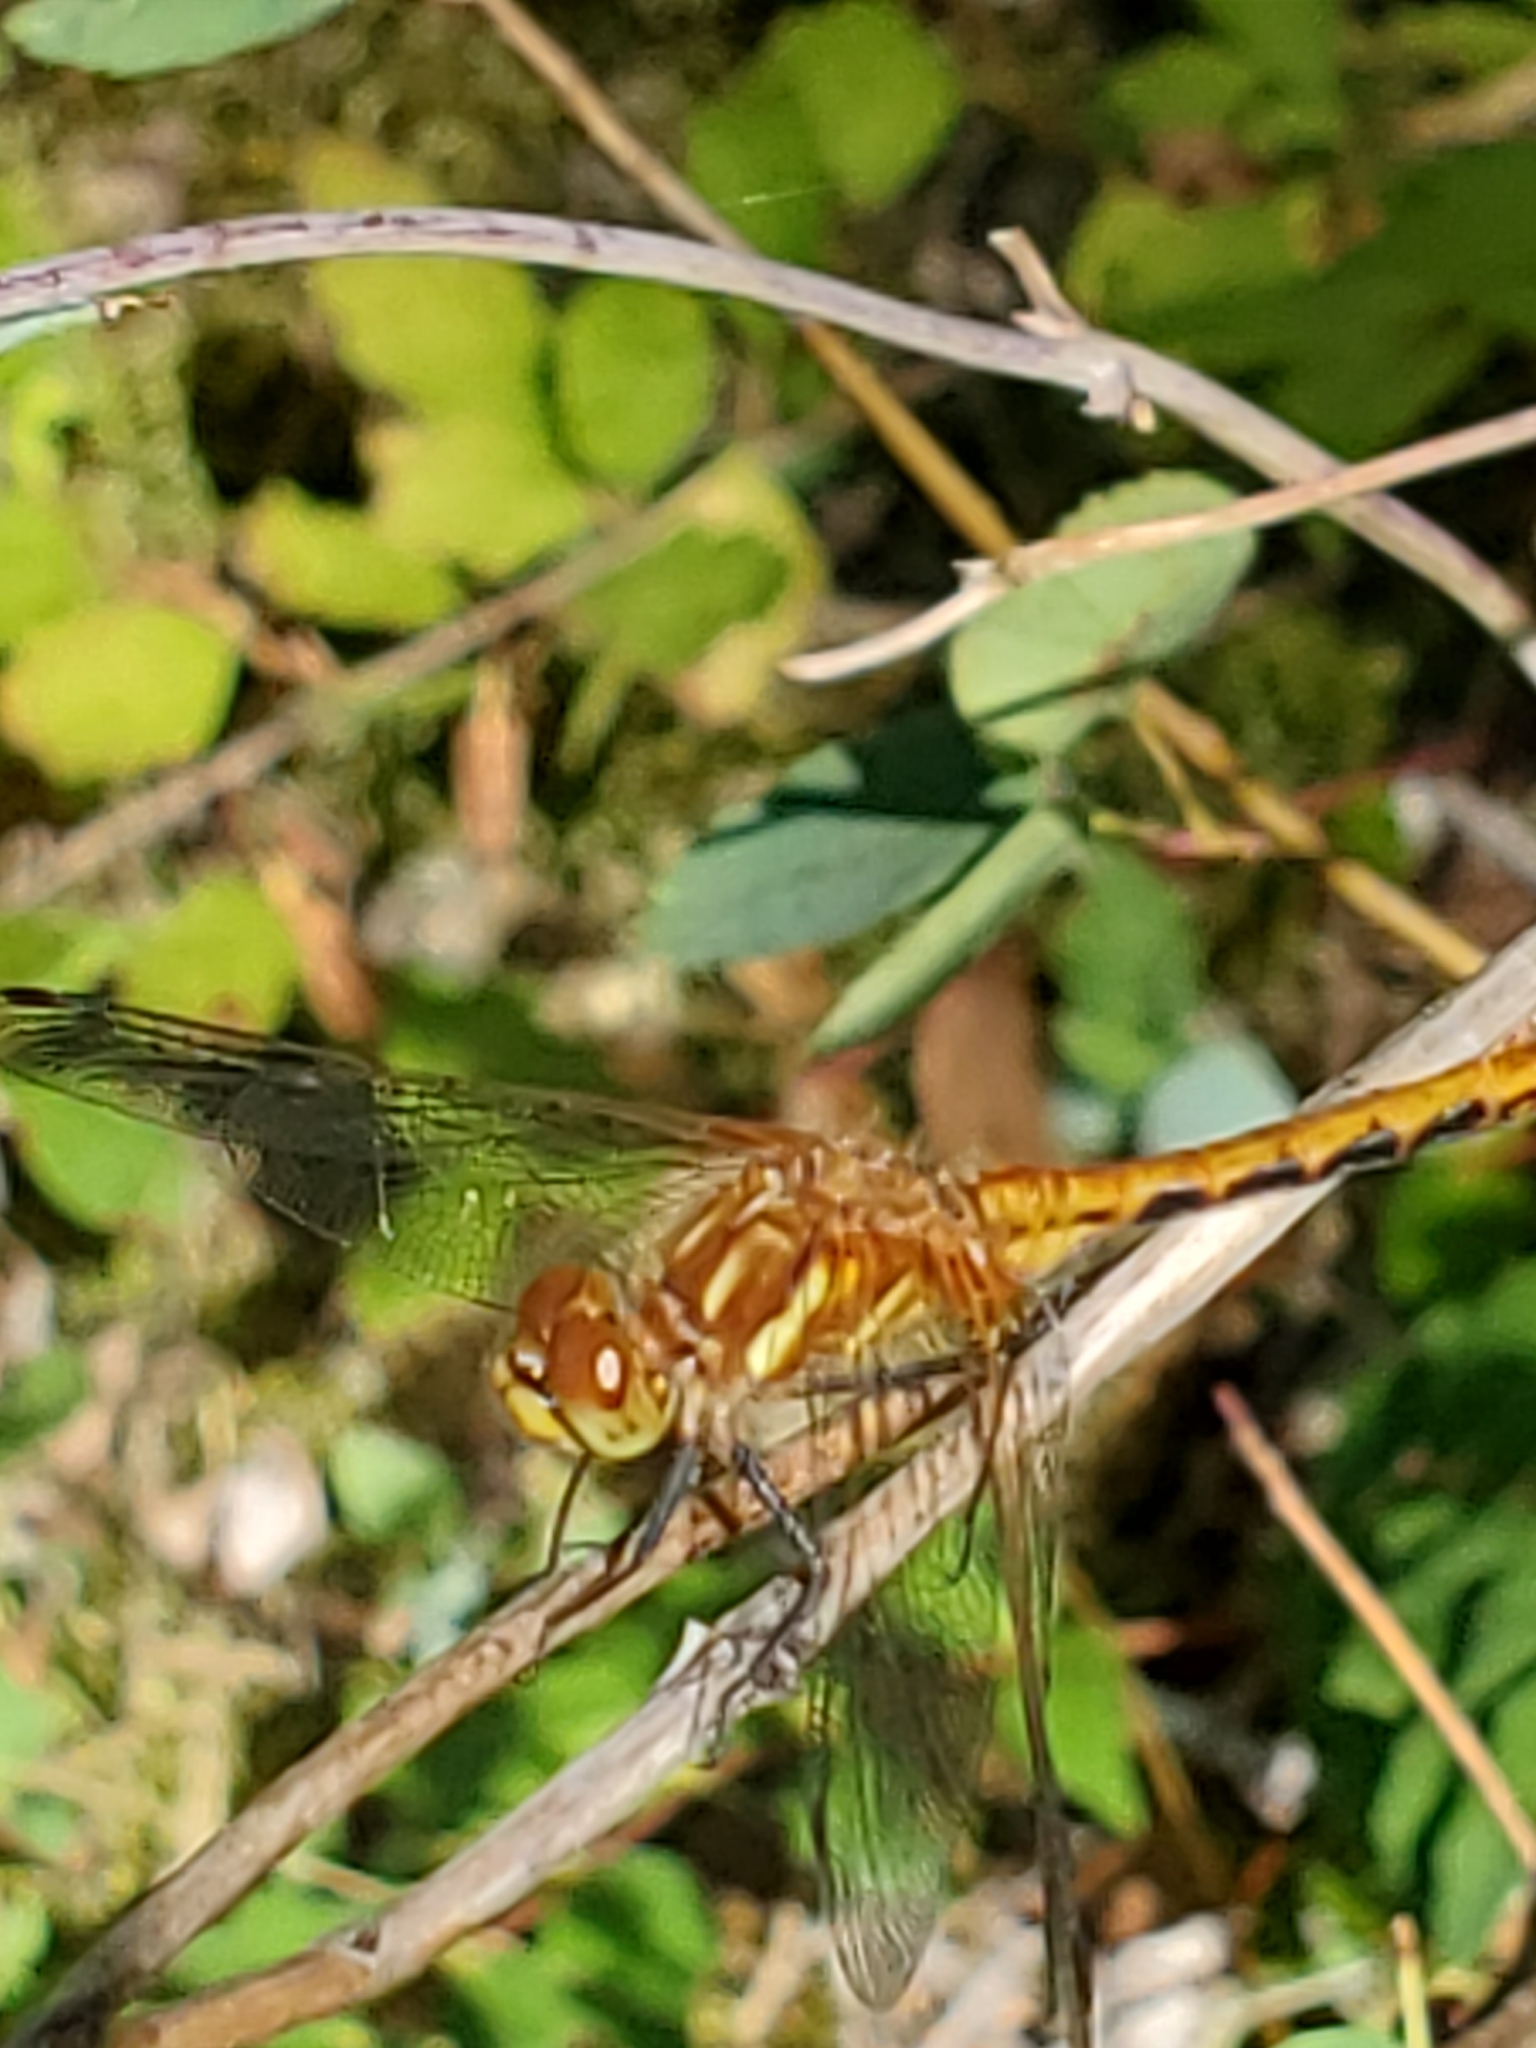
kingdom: Animalia
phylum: Arthropoda
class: Insecta
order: Odonata
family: Libellulidae
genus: Sympetrum
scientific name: Sympetrum pallipes
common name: Striped meadowhawk
